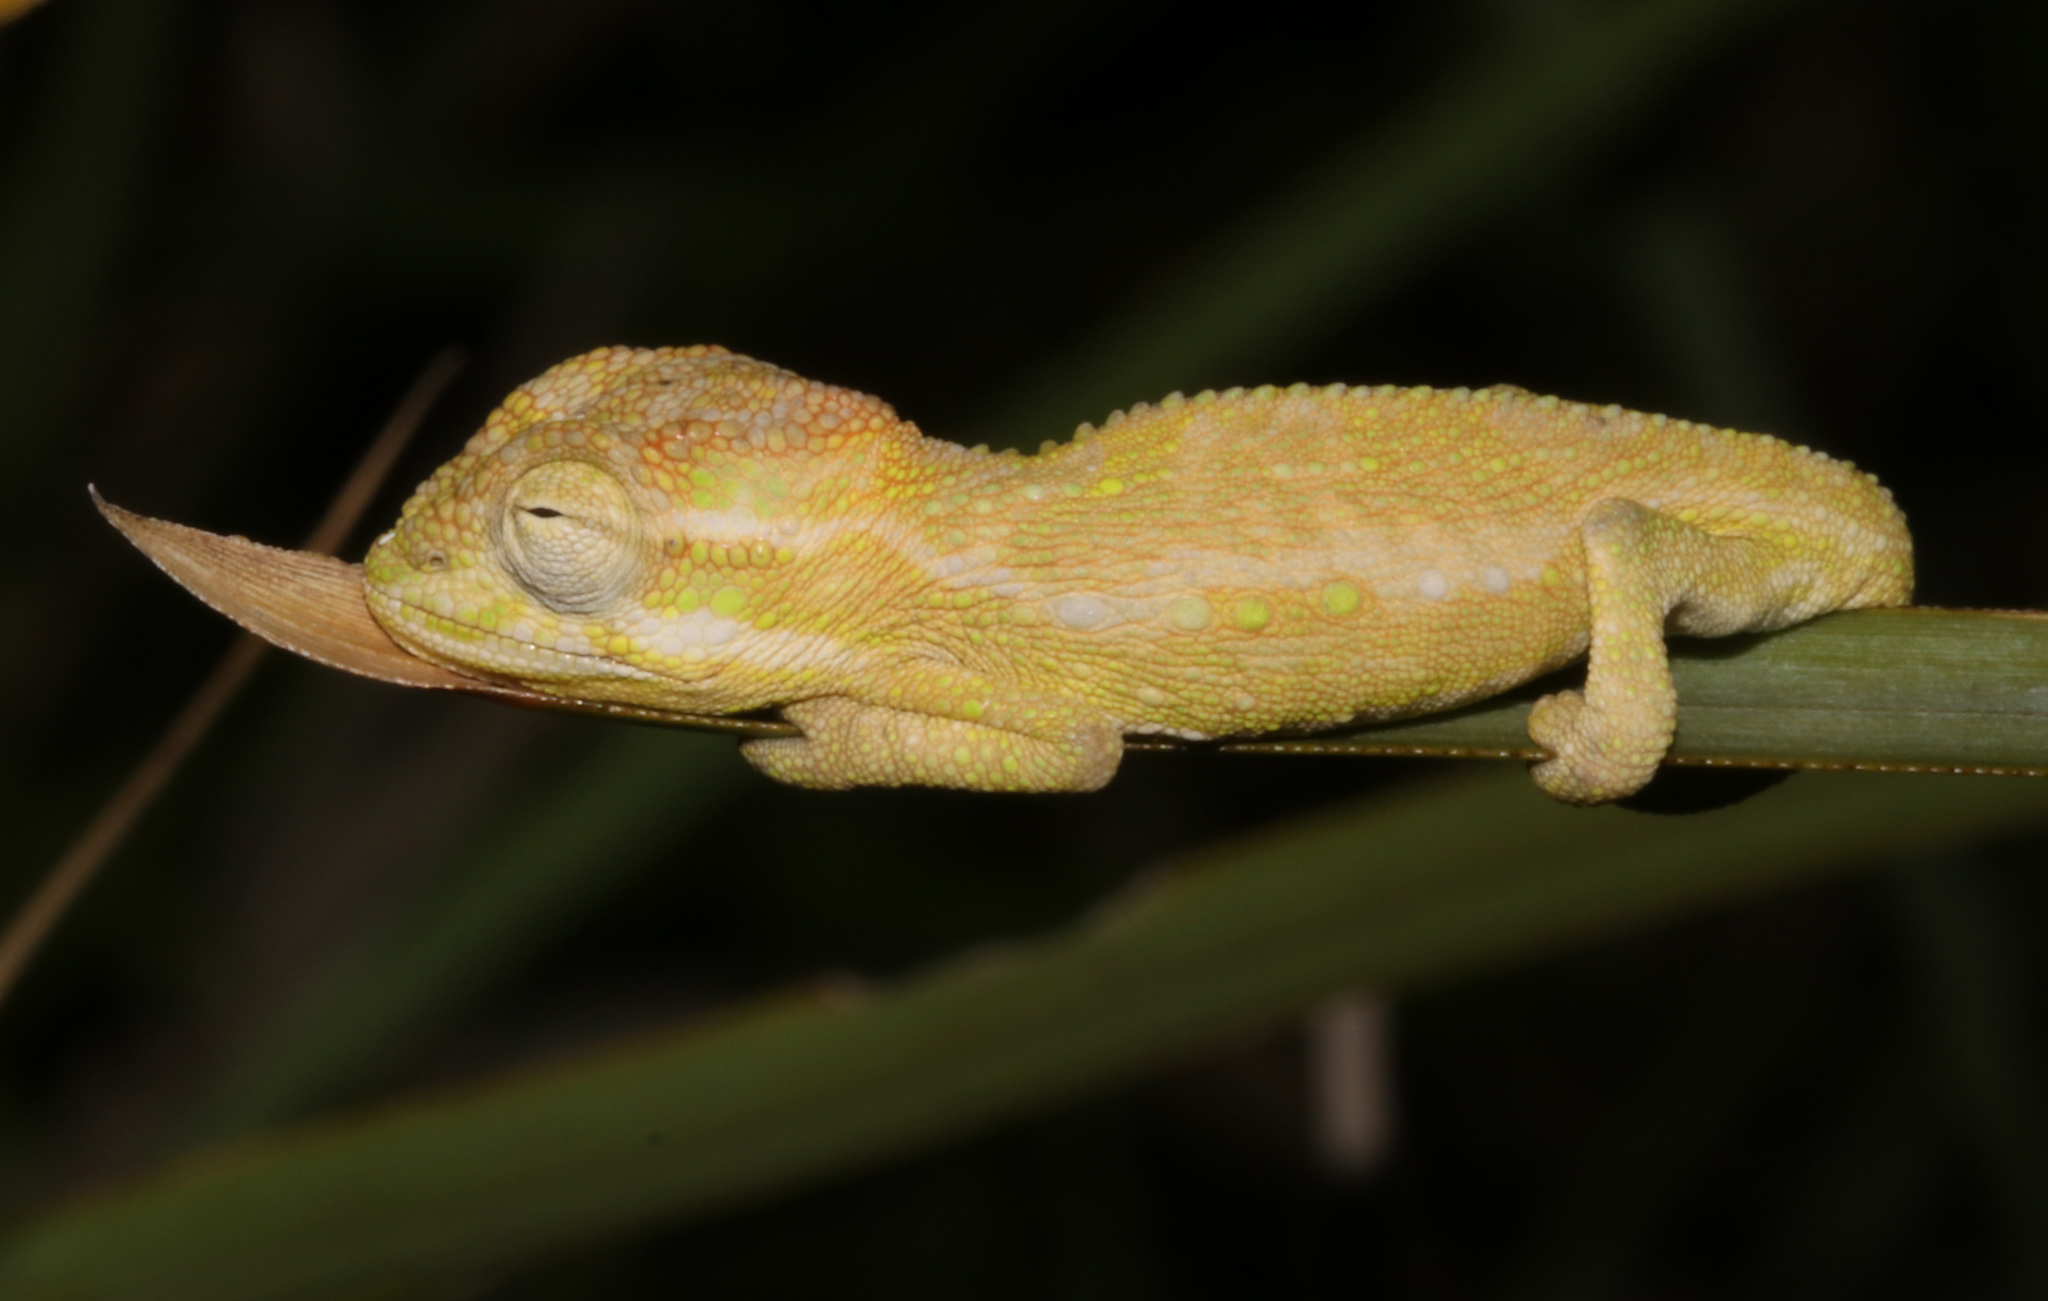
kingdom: Animalia
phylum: Chordata
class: Squamata
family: Chamaeleonidae
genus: Bradypodion
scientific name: Bradypodion pumilum
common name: Cape dwarf chameleon
